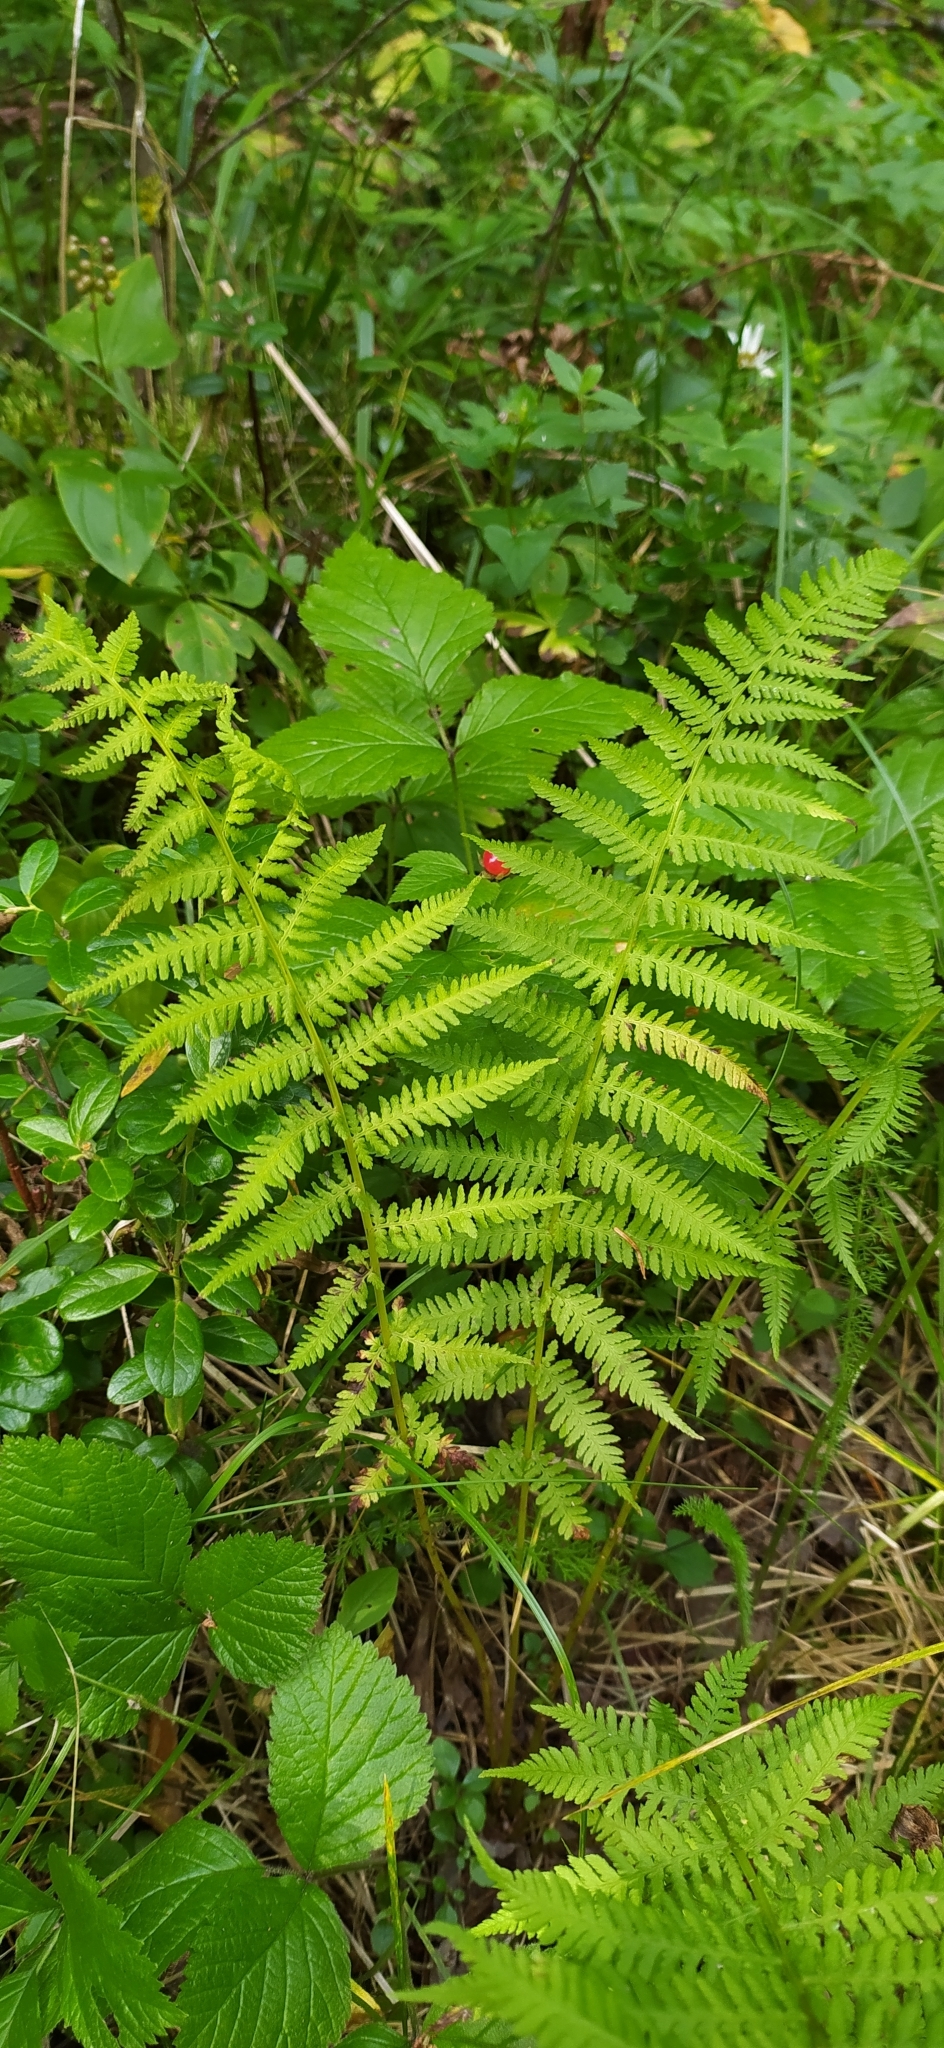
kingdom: Plantae
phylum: Tracheophyta
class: Polypodiopsida
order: Polypodiales
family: Athyriaceae
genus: Athyrium
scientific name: Athyrium filix-femina
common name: Lady fern
